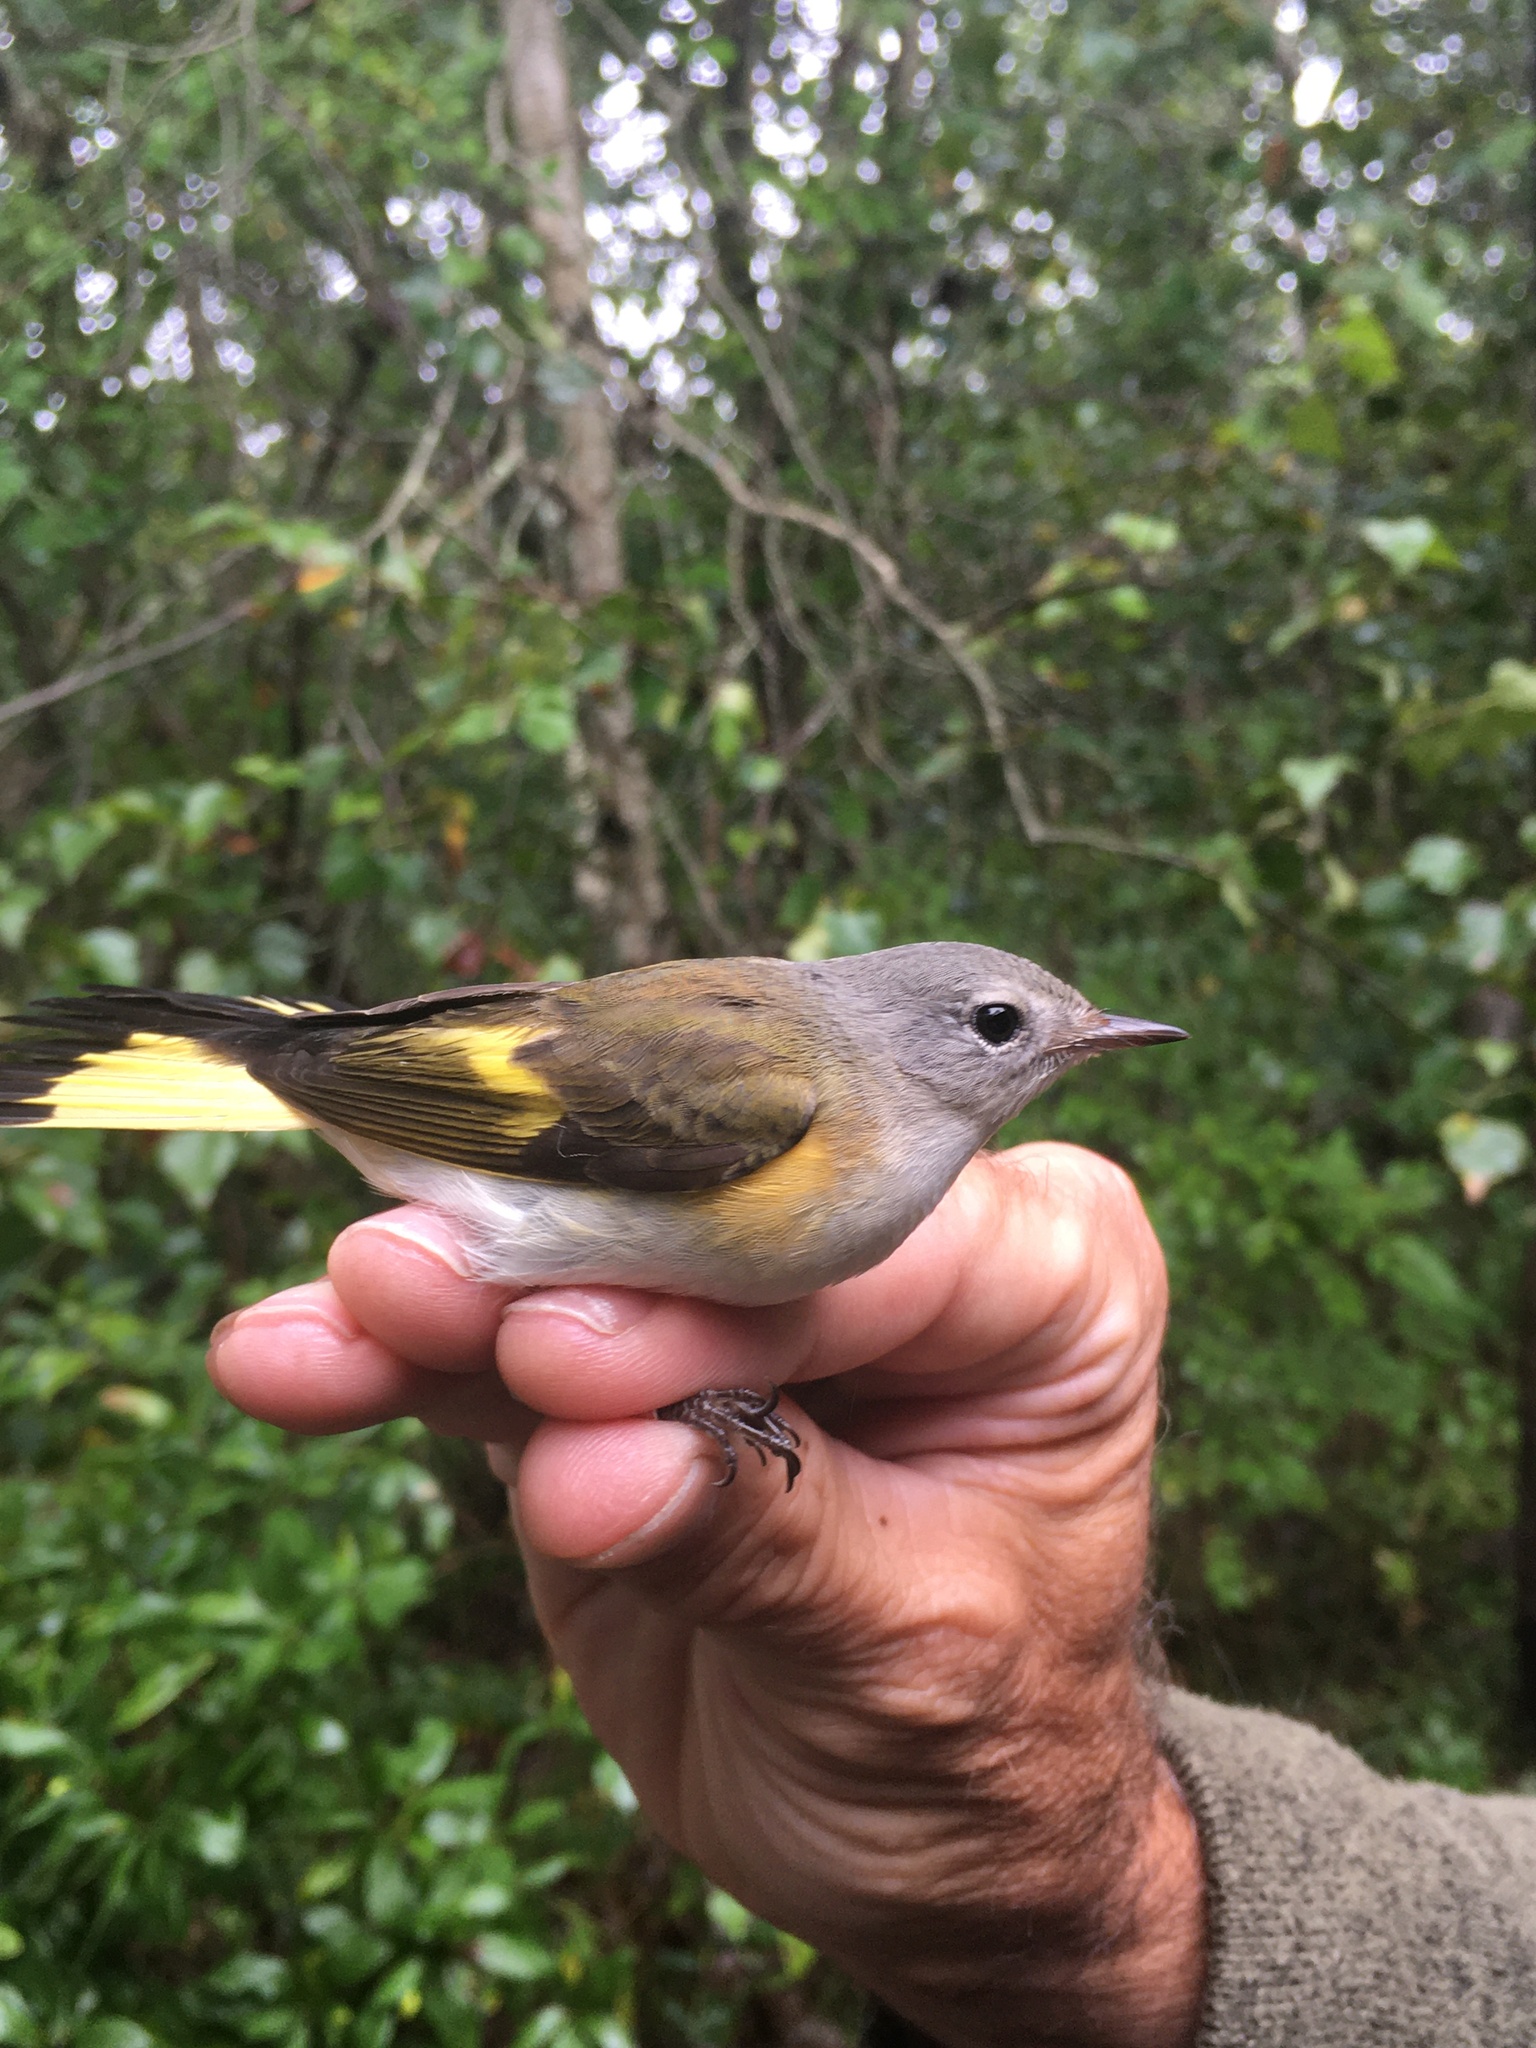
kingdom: Animalia
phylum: Chordata
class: Aves
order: Passeriformes
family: Parulidae
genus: Setophaga
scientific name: Setophaga ruticilla
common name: American redstart
